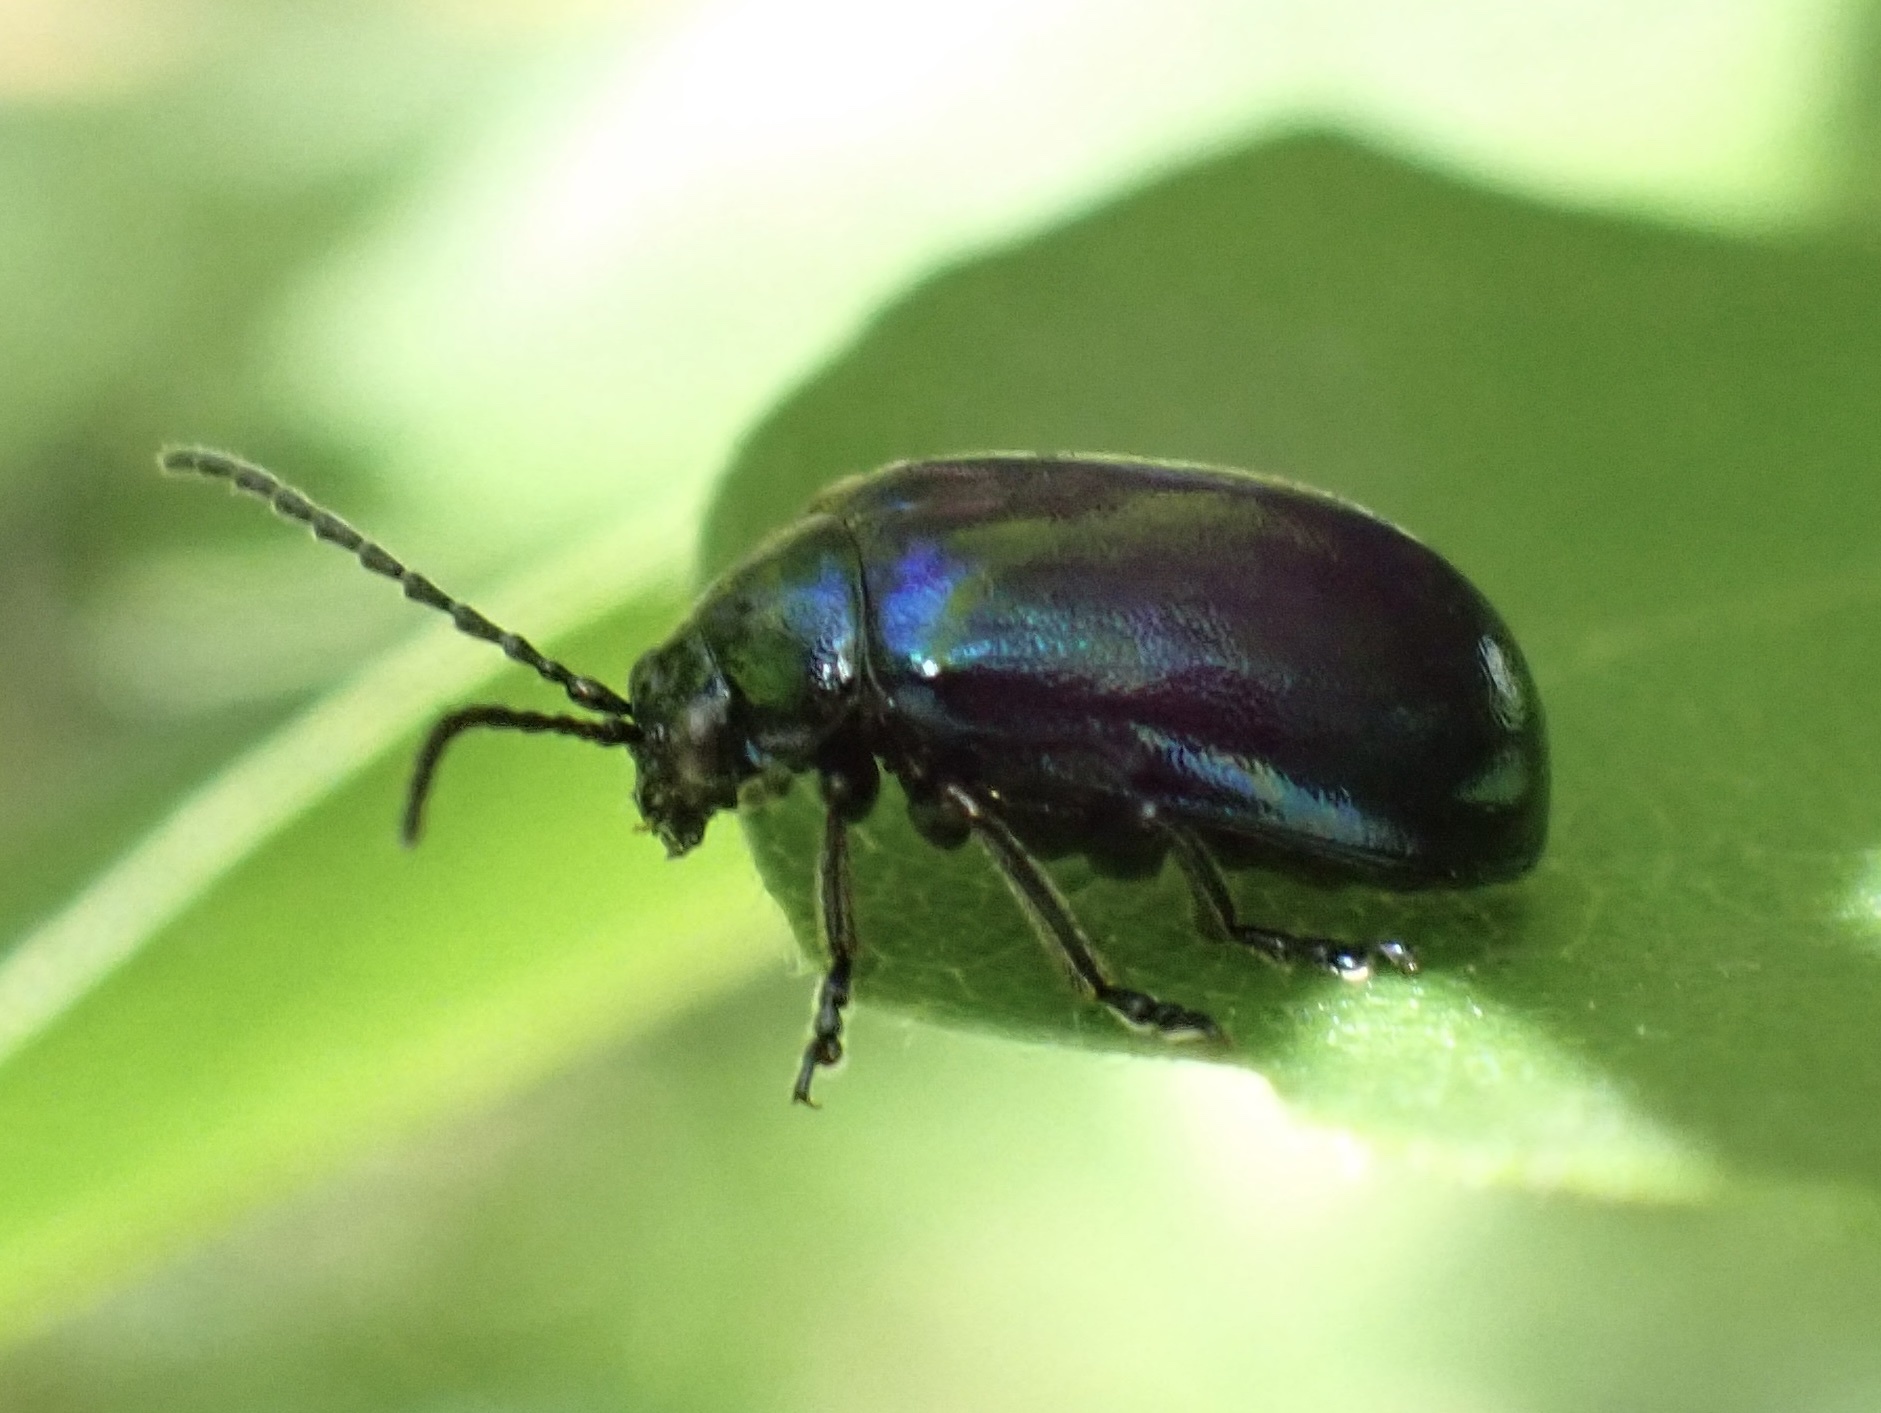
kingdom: Animalia
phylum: Arthropoda
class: Insecta
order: Coleoptera
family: Chrysomelidae
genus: Agelastica
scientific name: Agelastica alni
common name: Alder leaf beetle
